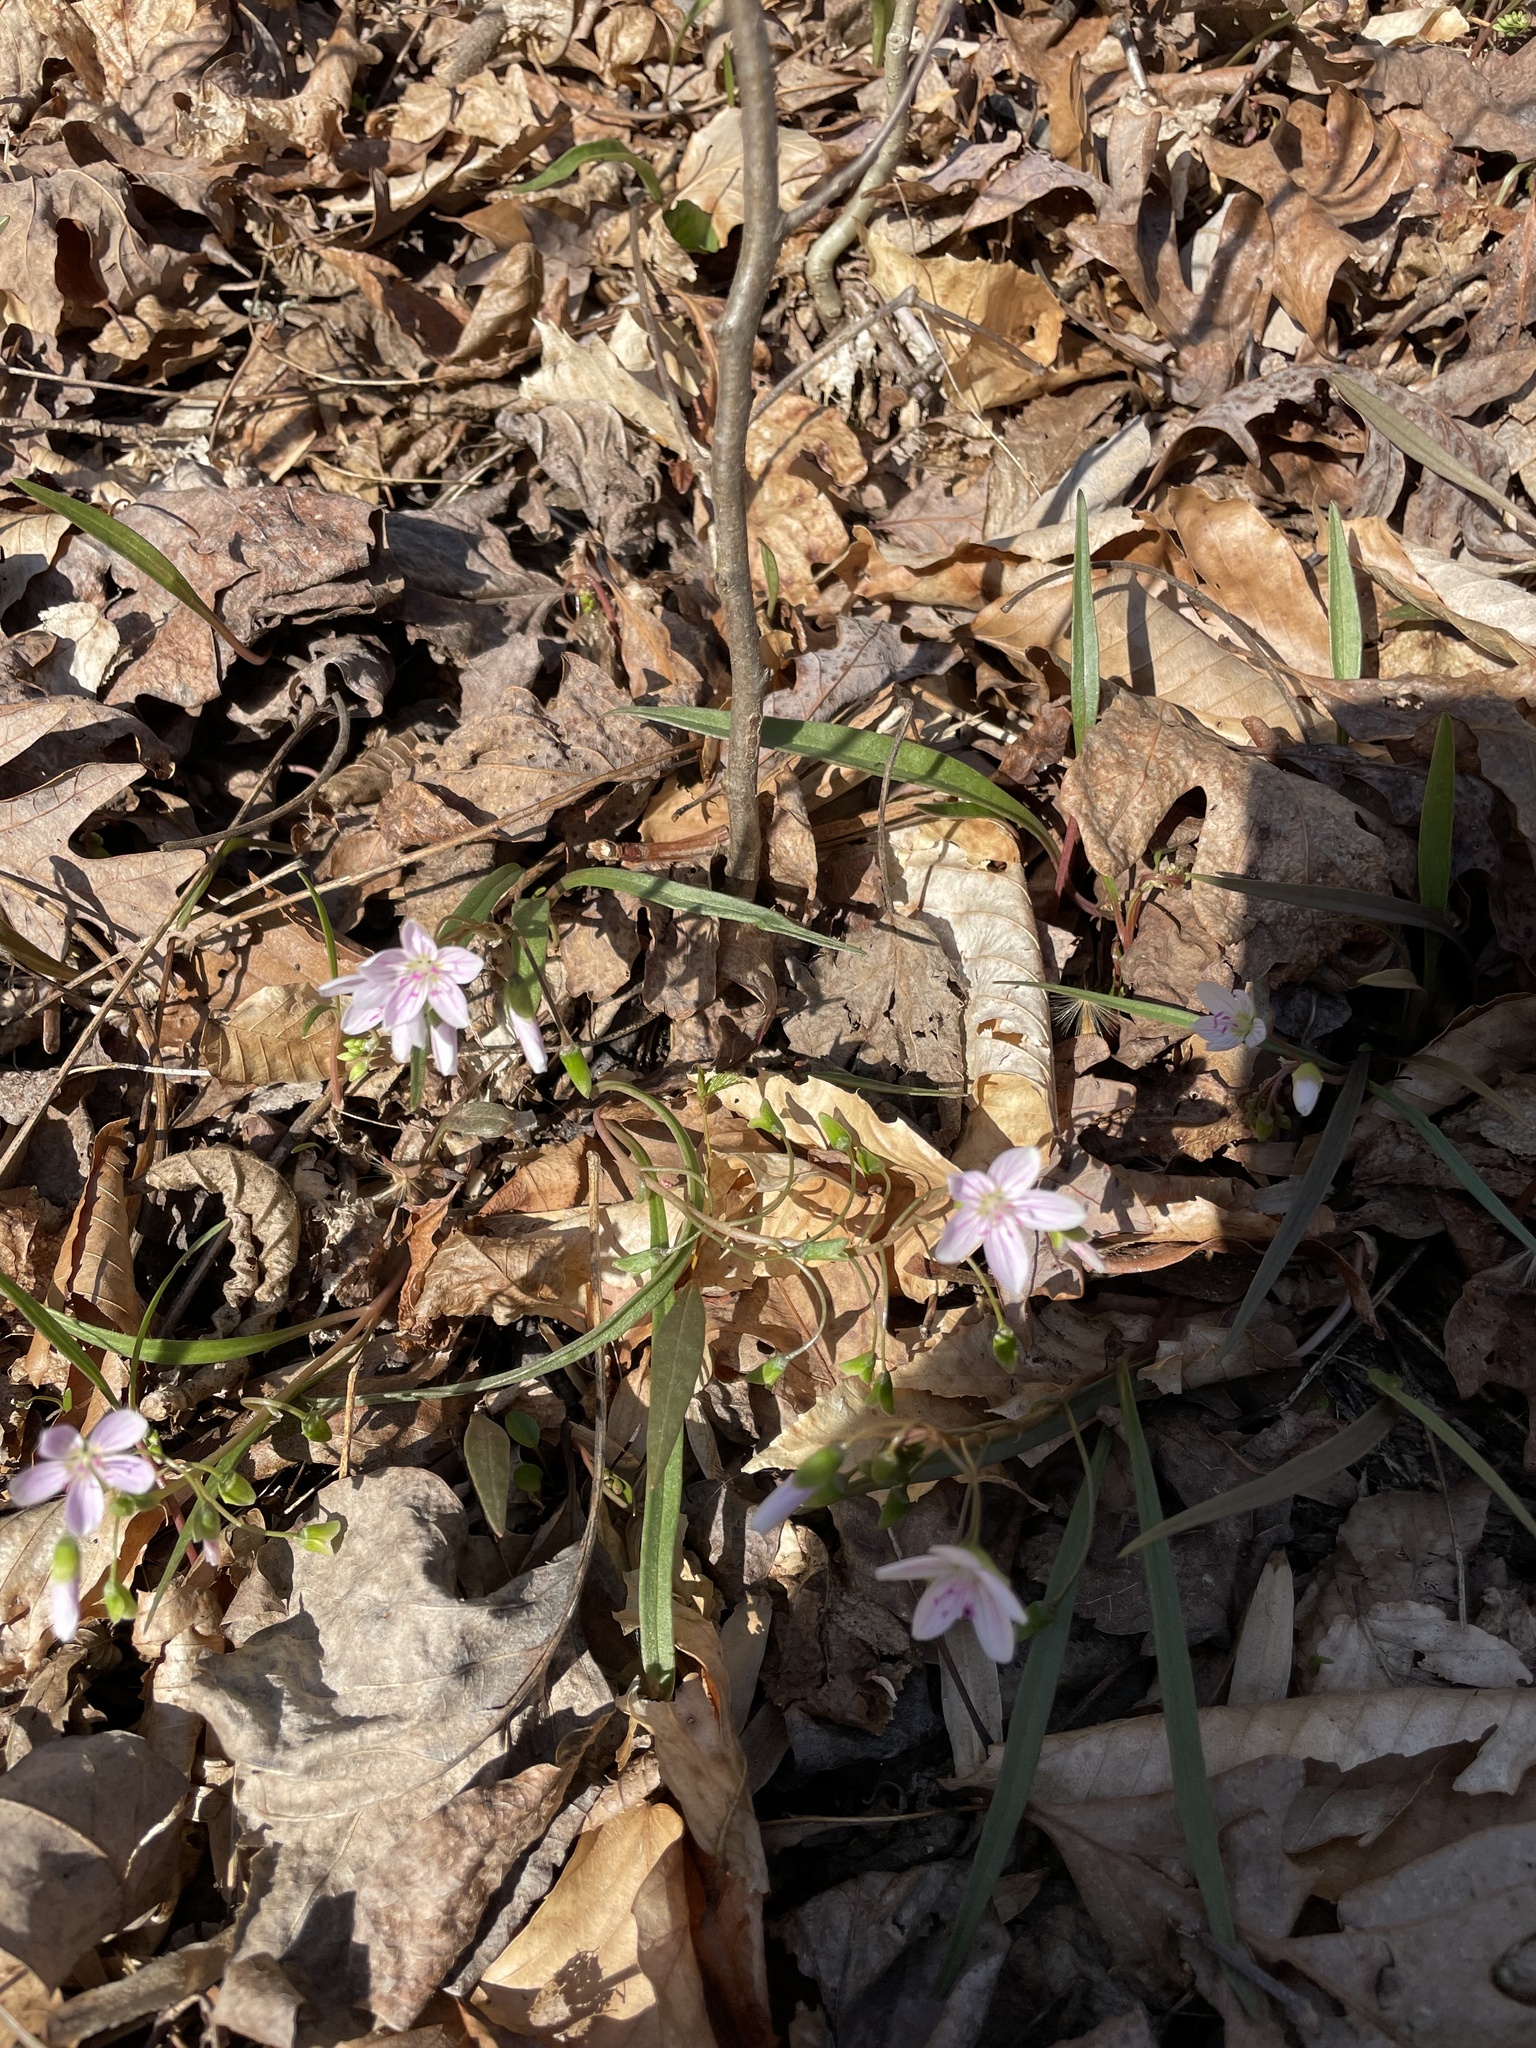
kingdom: Plantae
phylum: Tracheophyta
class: Magnoliopsida
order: Caryophyllales
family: Montiaceae
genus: Claytonia
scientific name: Claytonia virginica
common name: Virginia springbeauty
